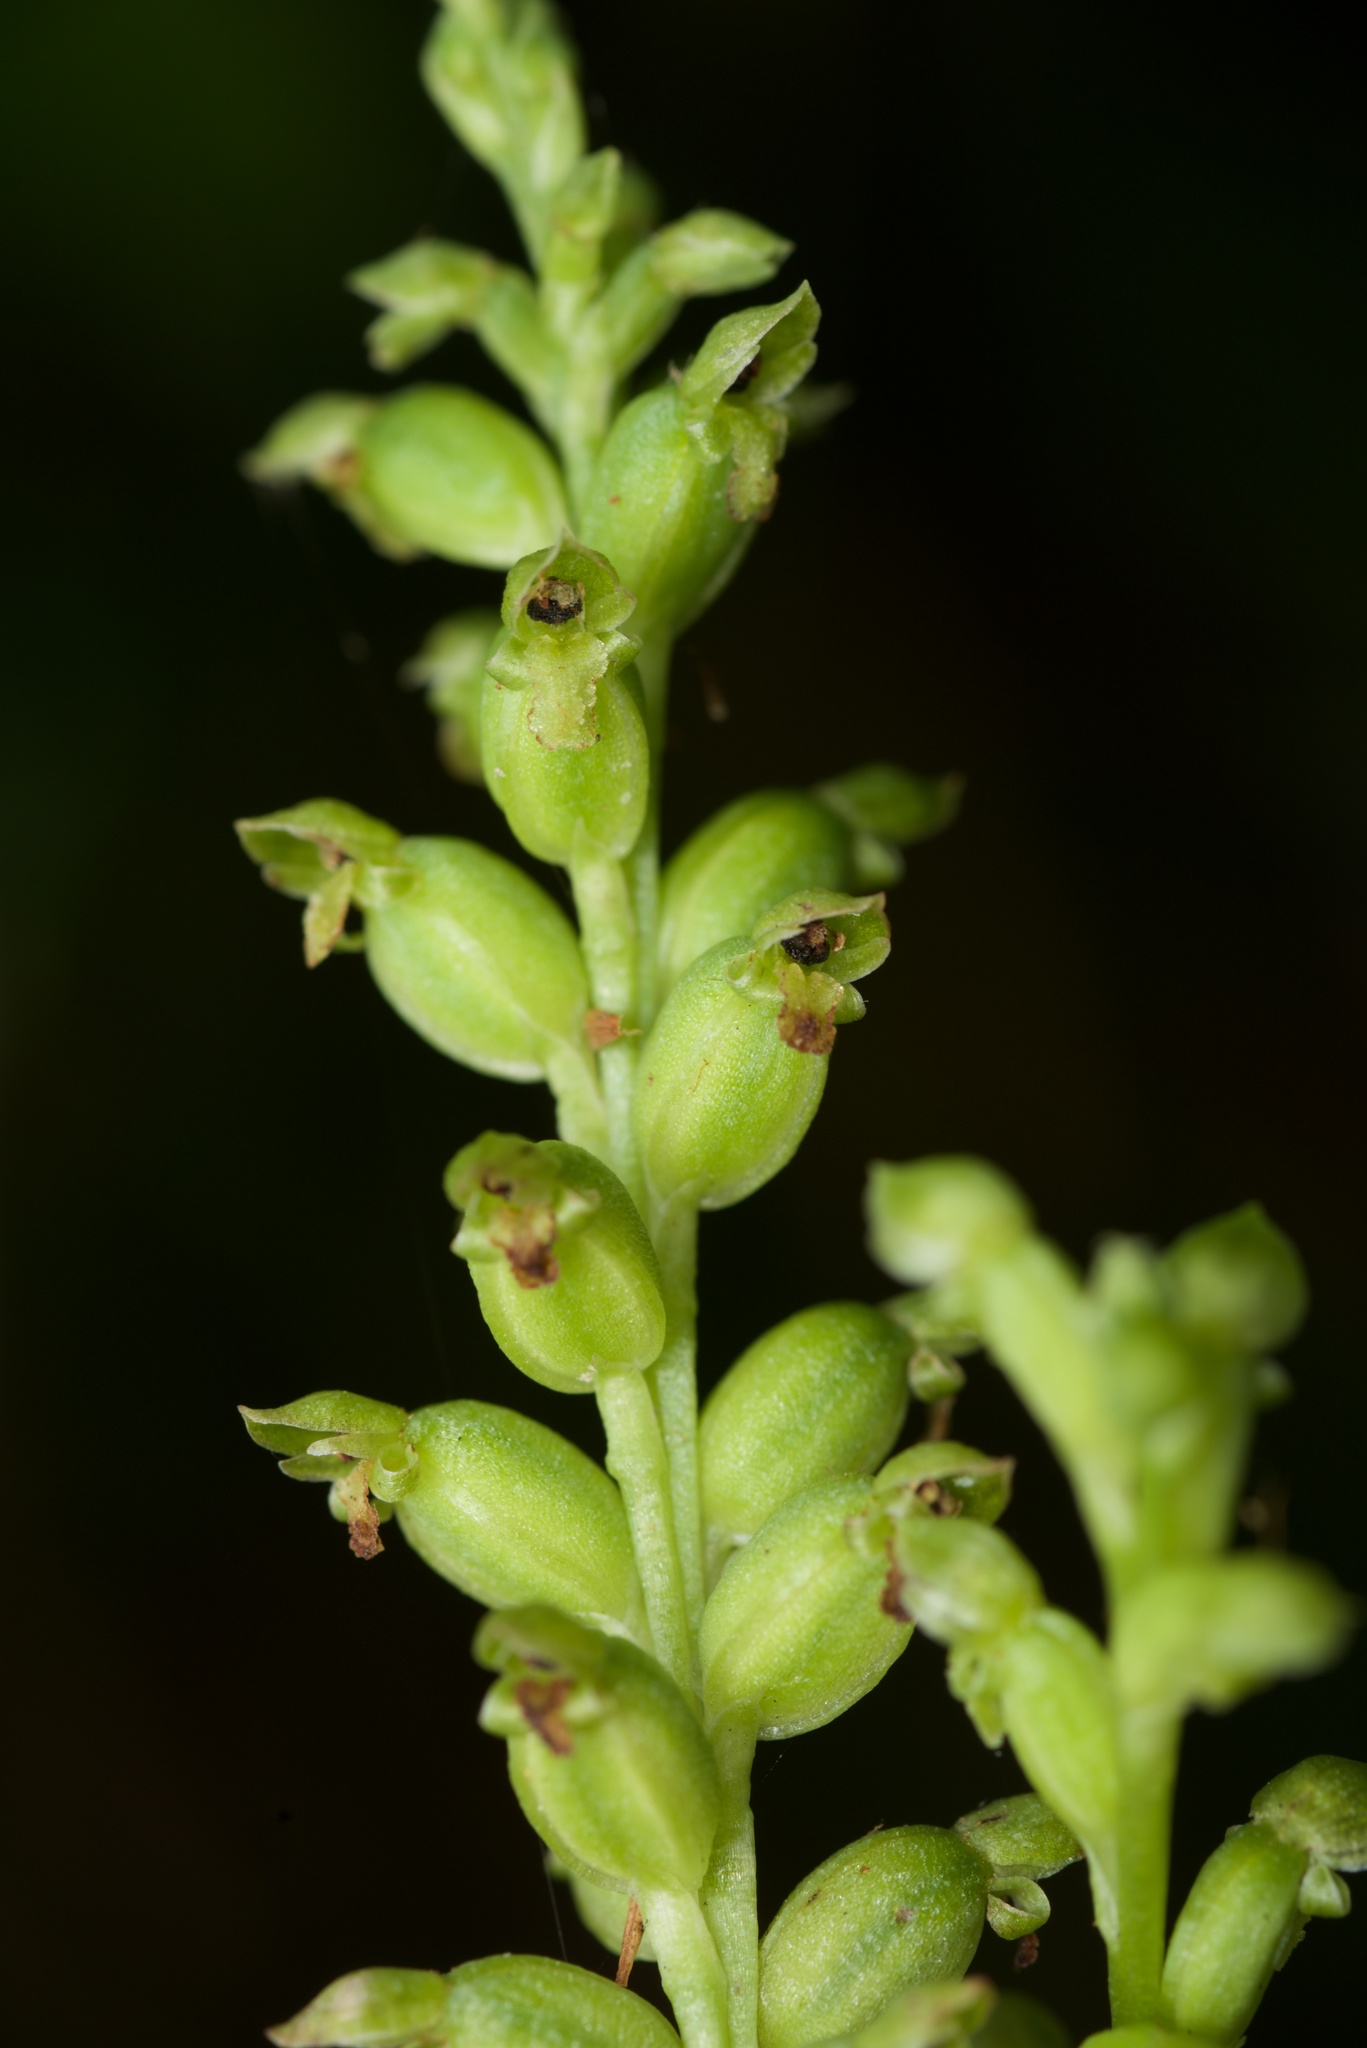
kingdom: Plantae
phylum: Tracheophyta
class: Liliopsida
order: Asparagales
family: Orchidaceae
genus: Microtis
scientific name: Microtis unifolia
